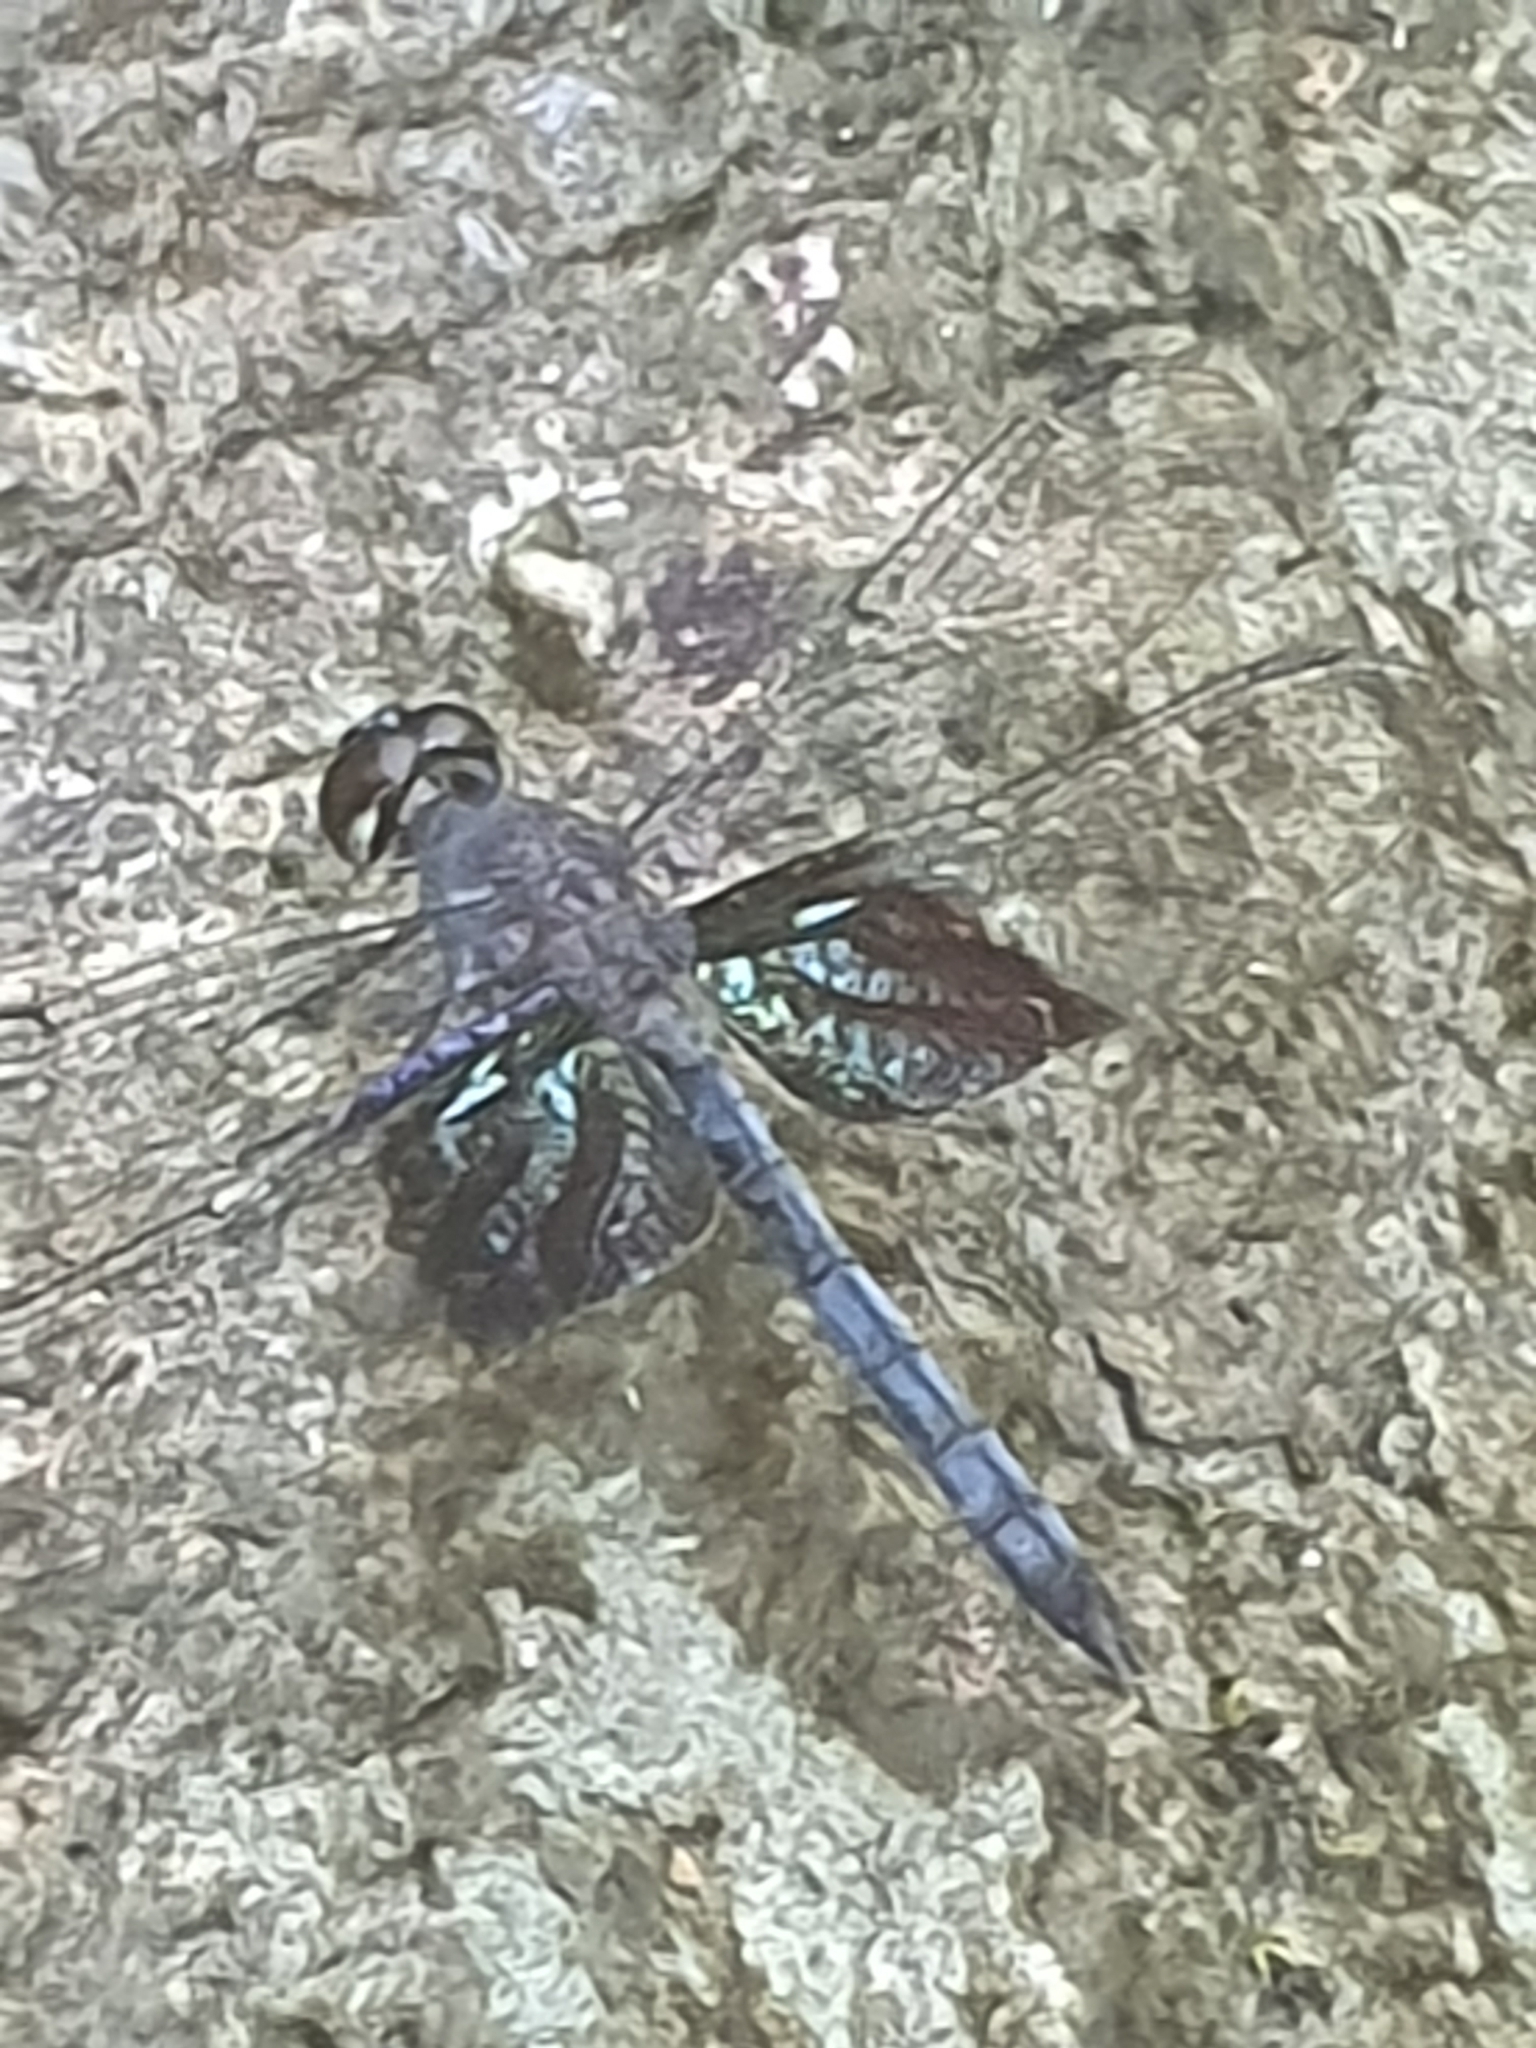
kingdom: Animalia
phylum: Arthropoda
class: Insecta
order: Odonata
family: Libellulidae
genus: Tyriobapta
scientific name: Tyriobapta torrida
